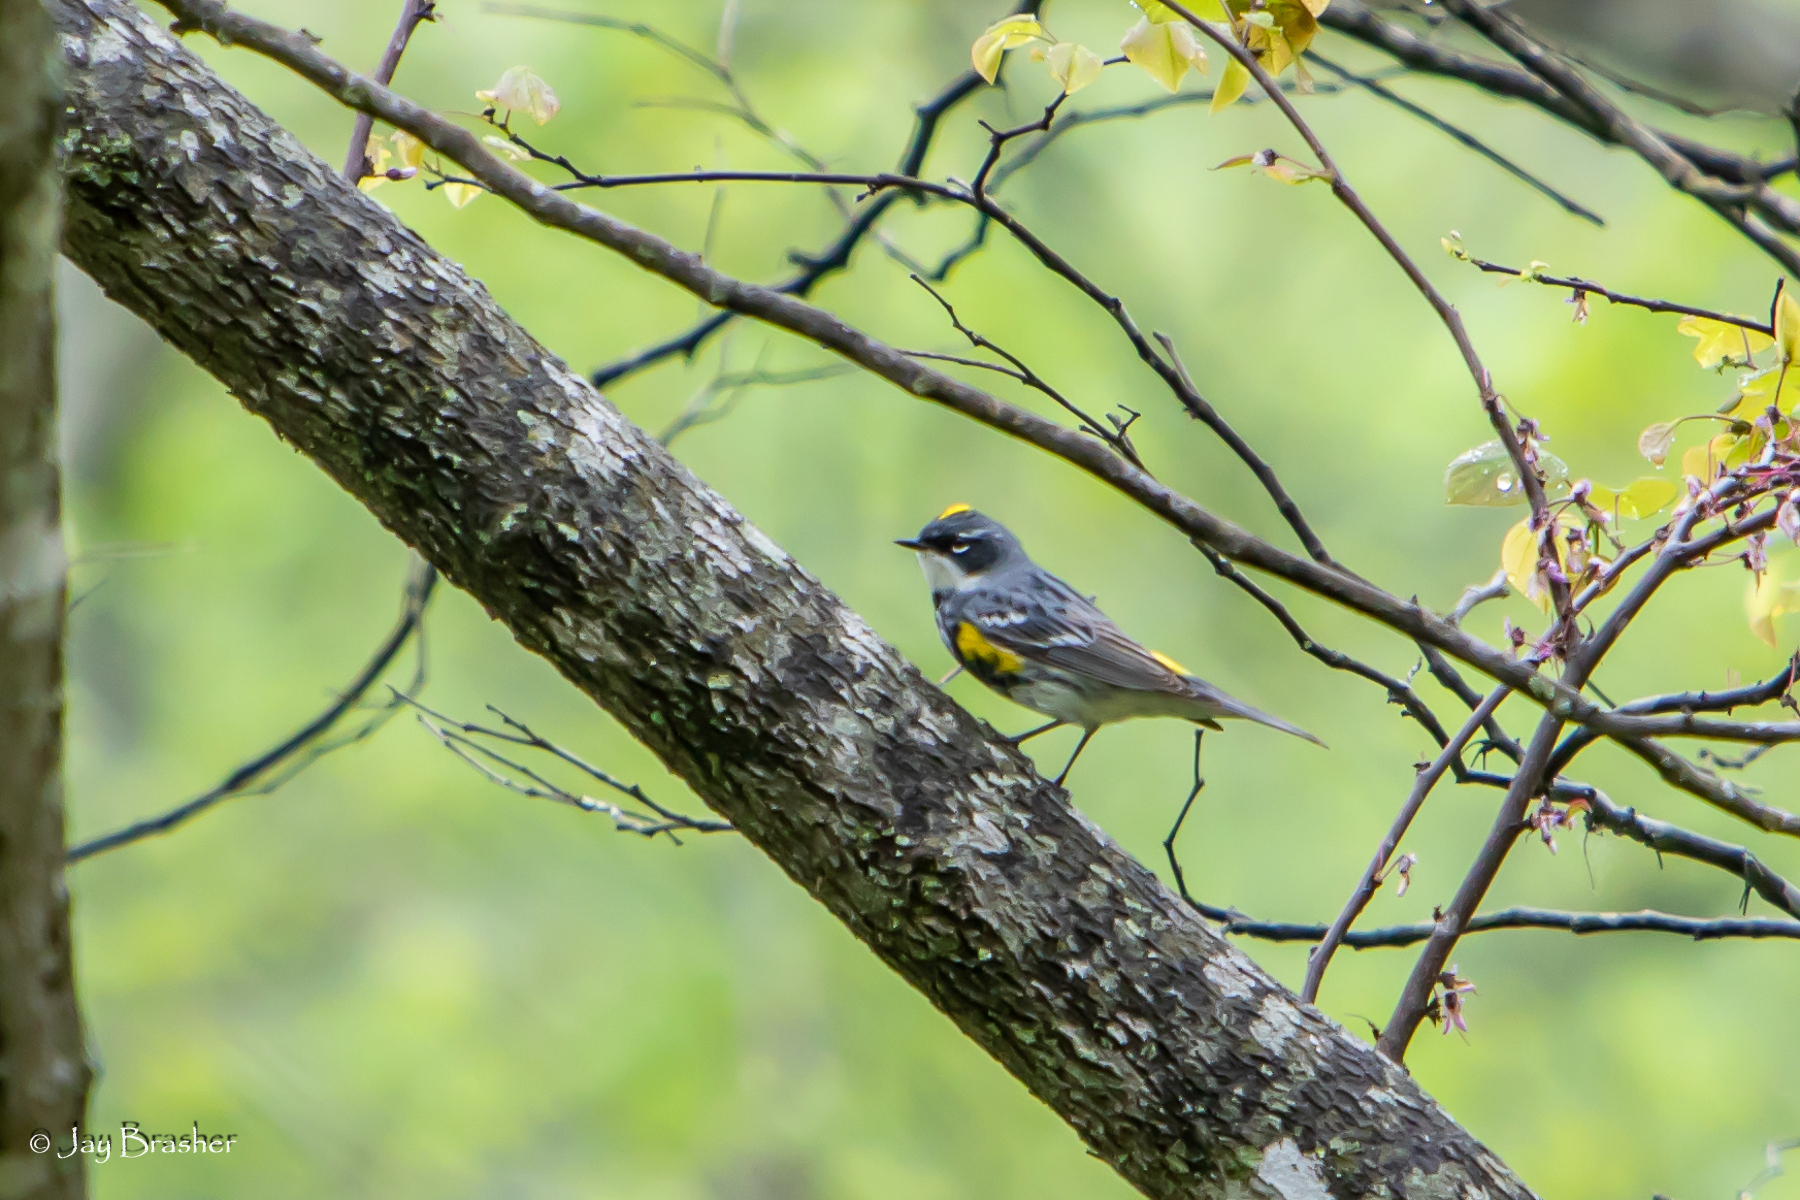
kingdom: Animalia
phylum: Chordata
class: Aves
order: Passeriformes
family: Parulidae
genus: Setophaga
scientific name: Setophaga coronata
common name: Myrtle warbler
